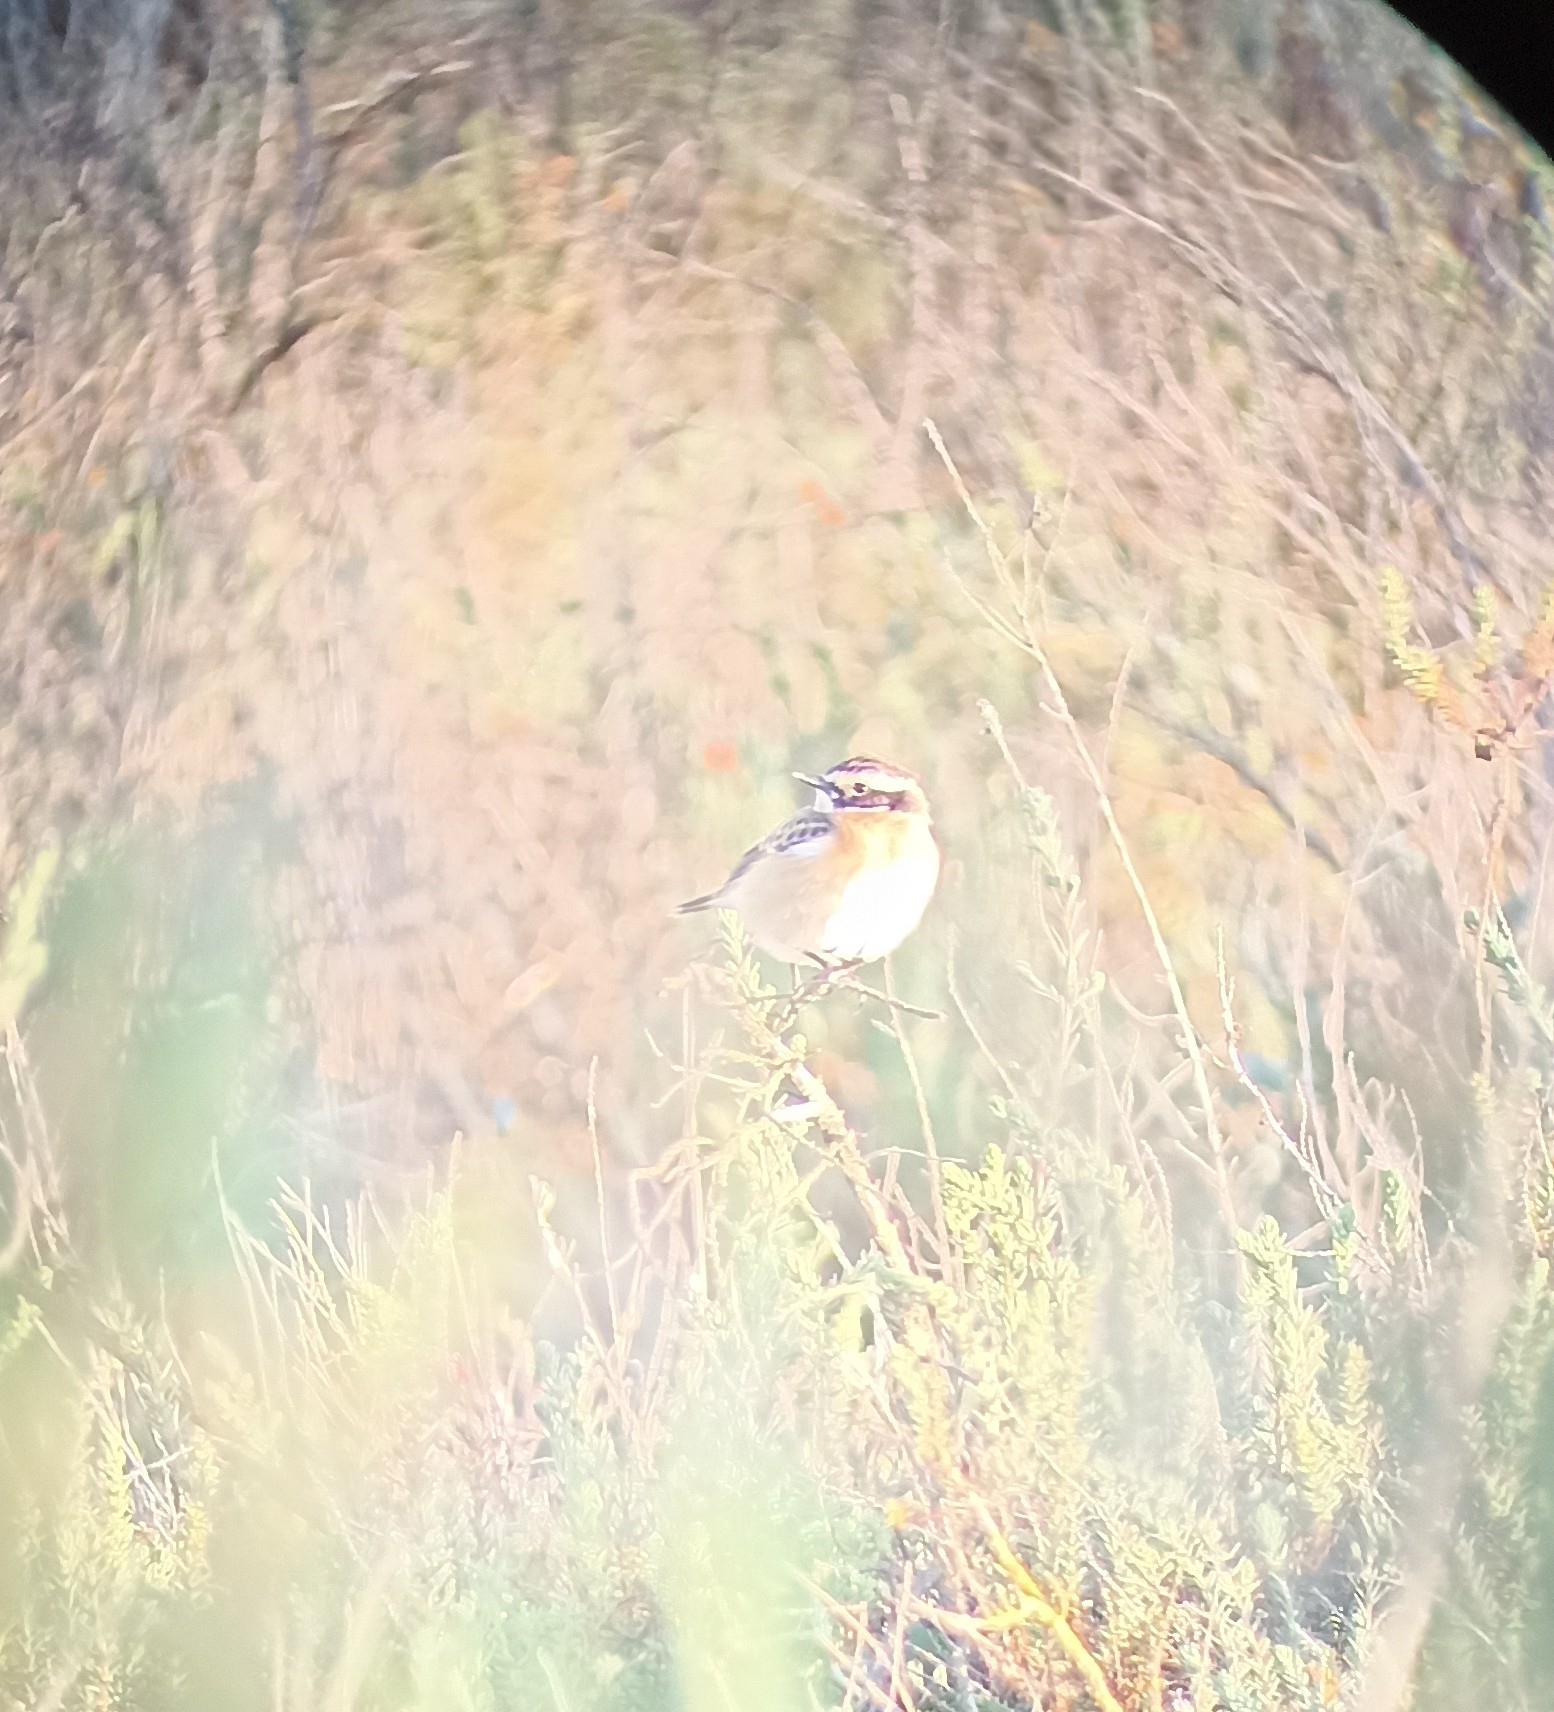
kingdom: Animalia
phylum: Chordata
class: Aves
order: Passeriformes
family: Muscicapidae
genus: Saxicola
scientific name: Saxicola rubetra
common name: Whinchat
